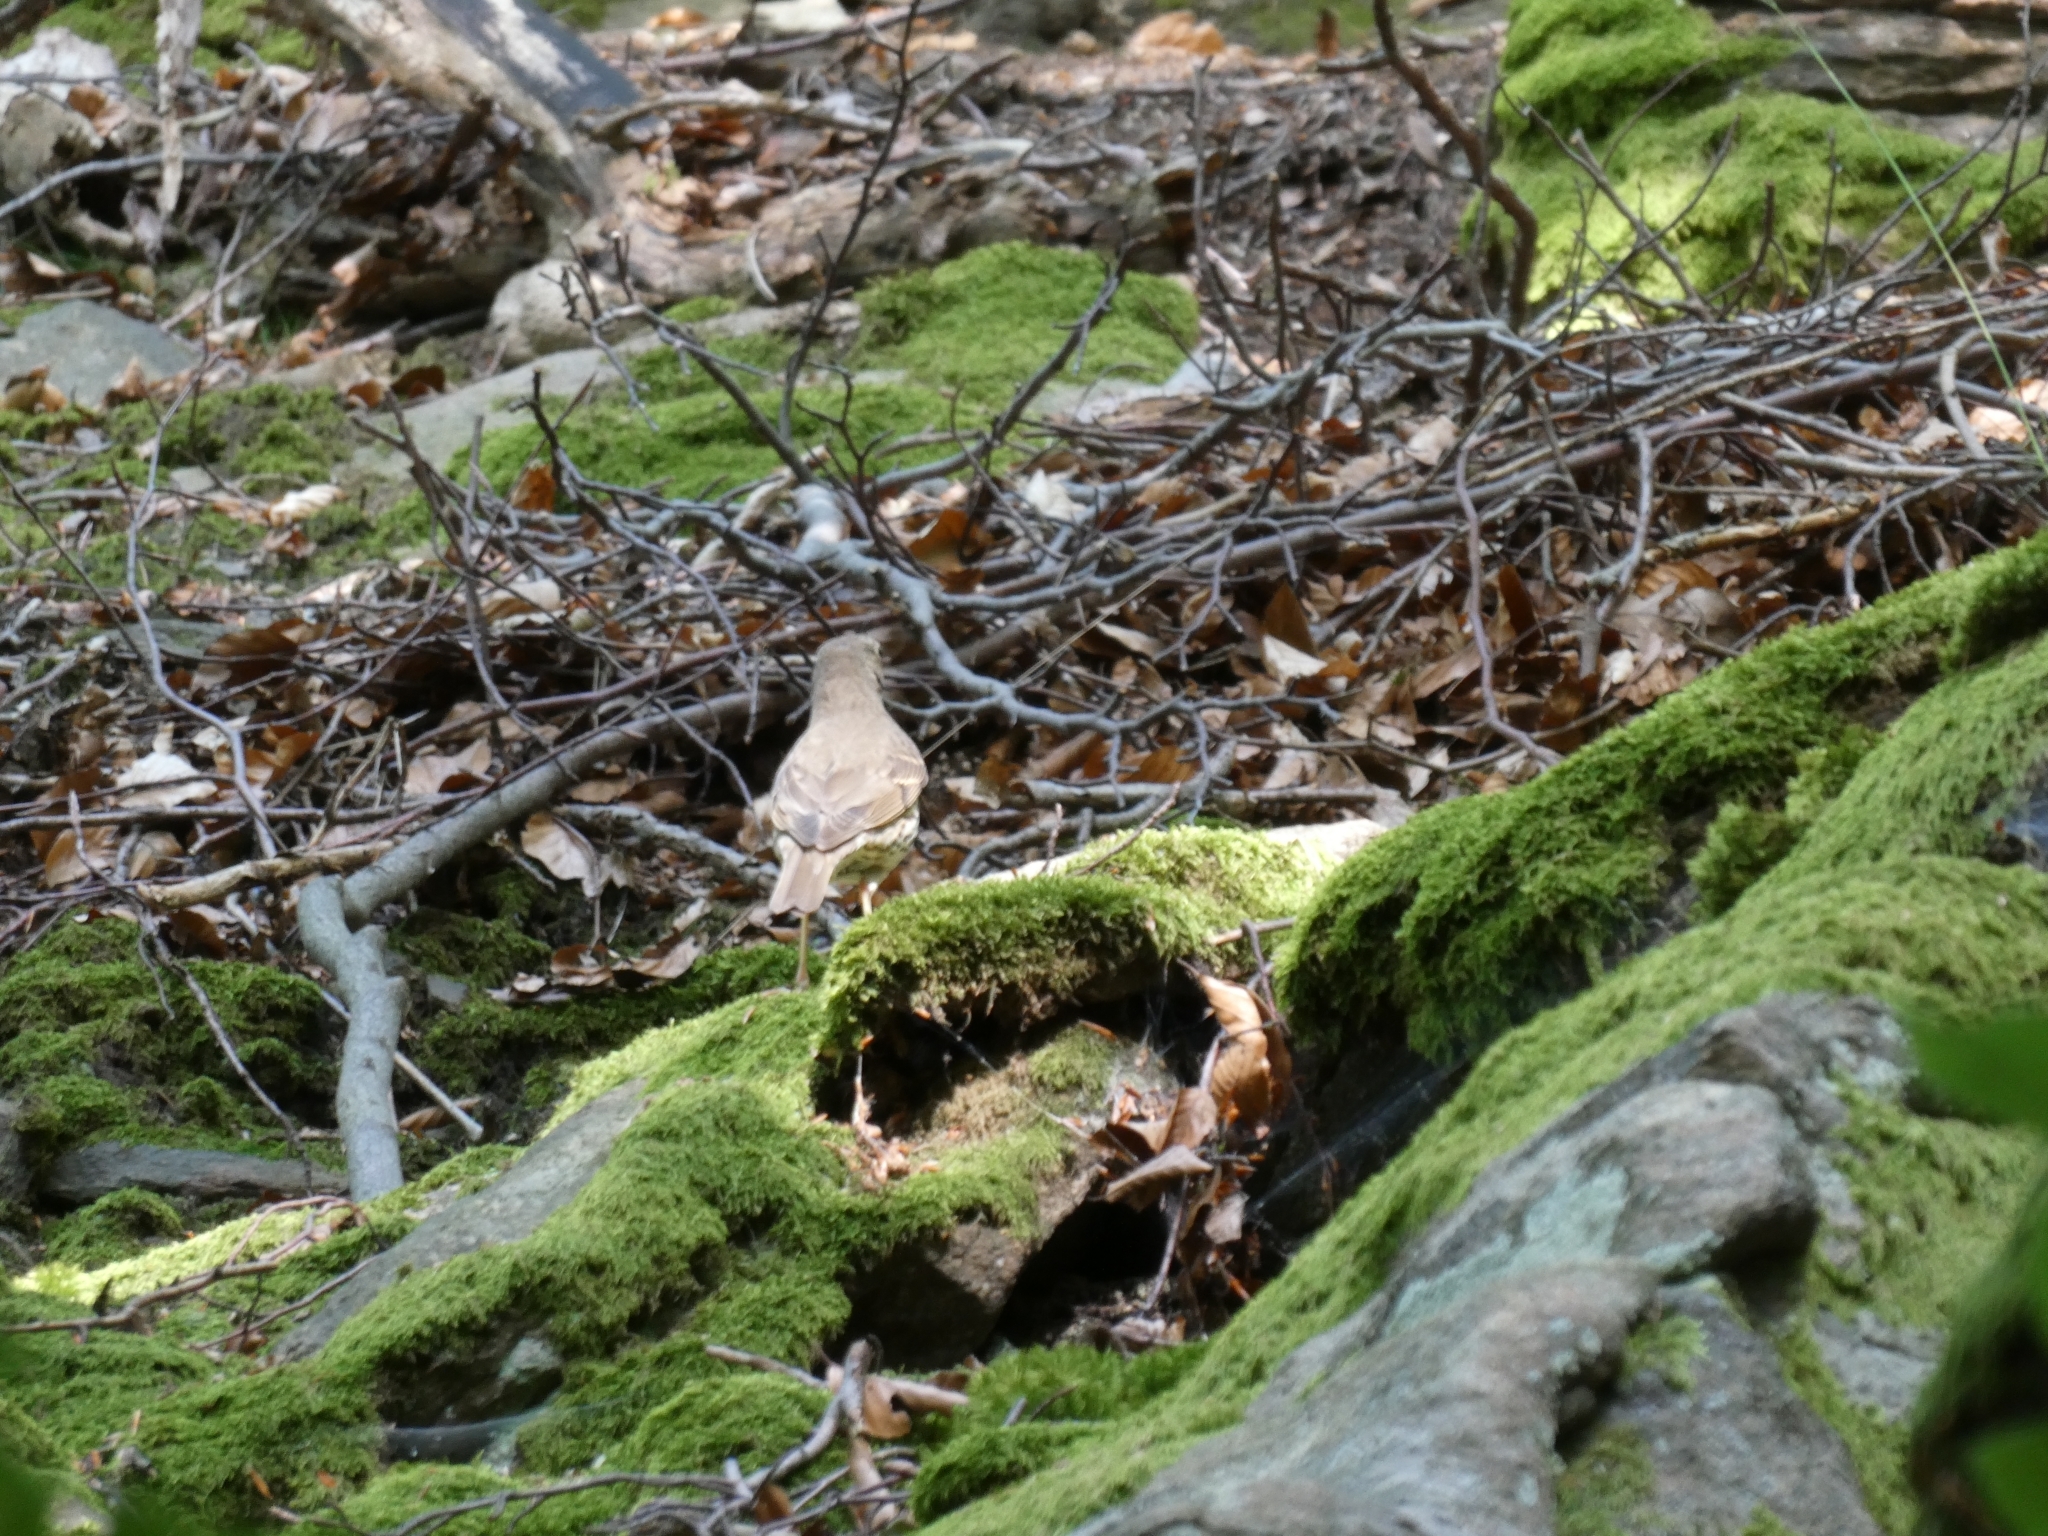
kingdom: Animalia
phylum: Chordata
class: Aves
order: Passeriformes
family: Turdidae
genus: Turdus
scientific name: Turdus philomelos
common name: Song thrush
